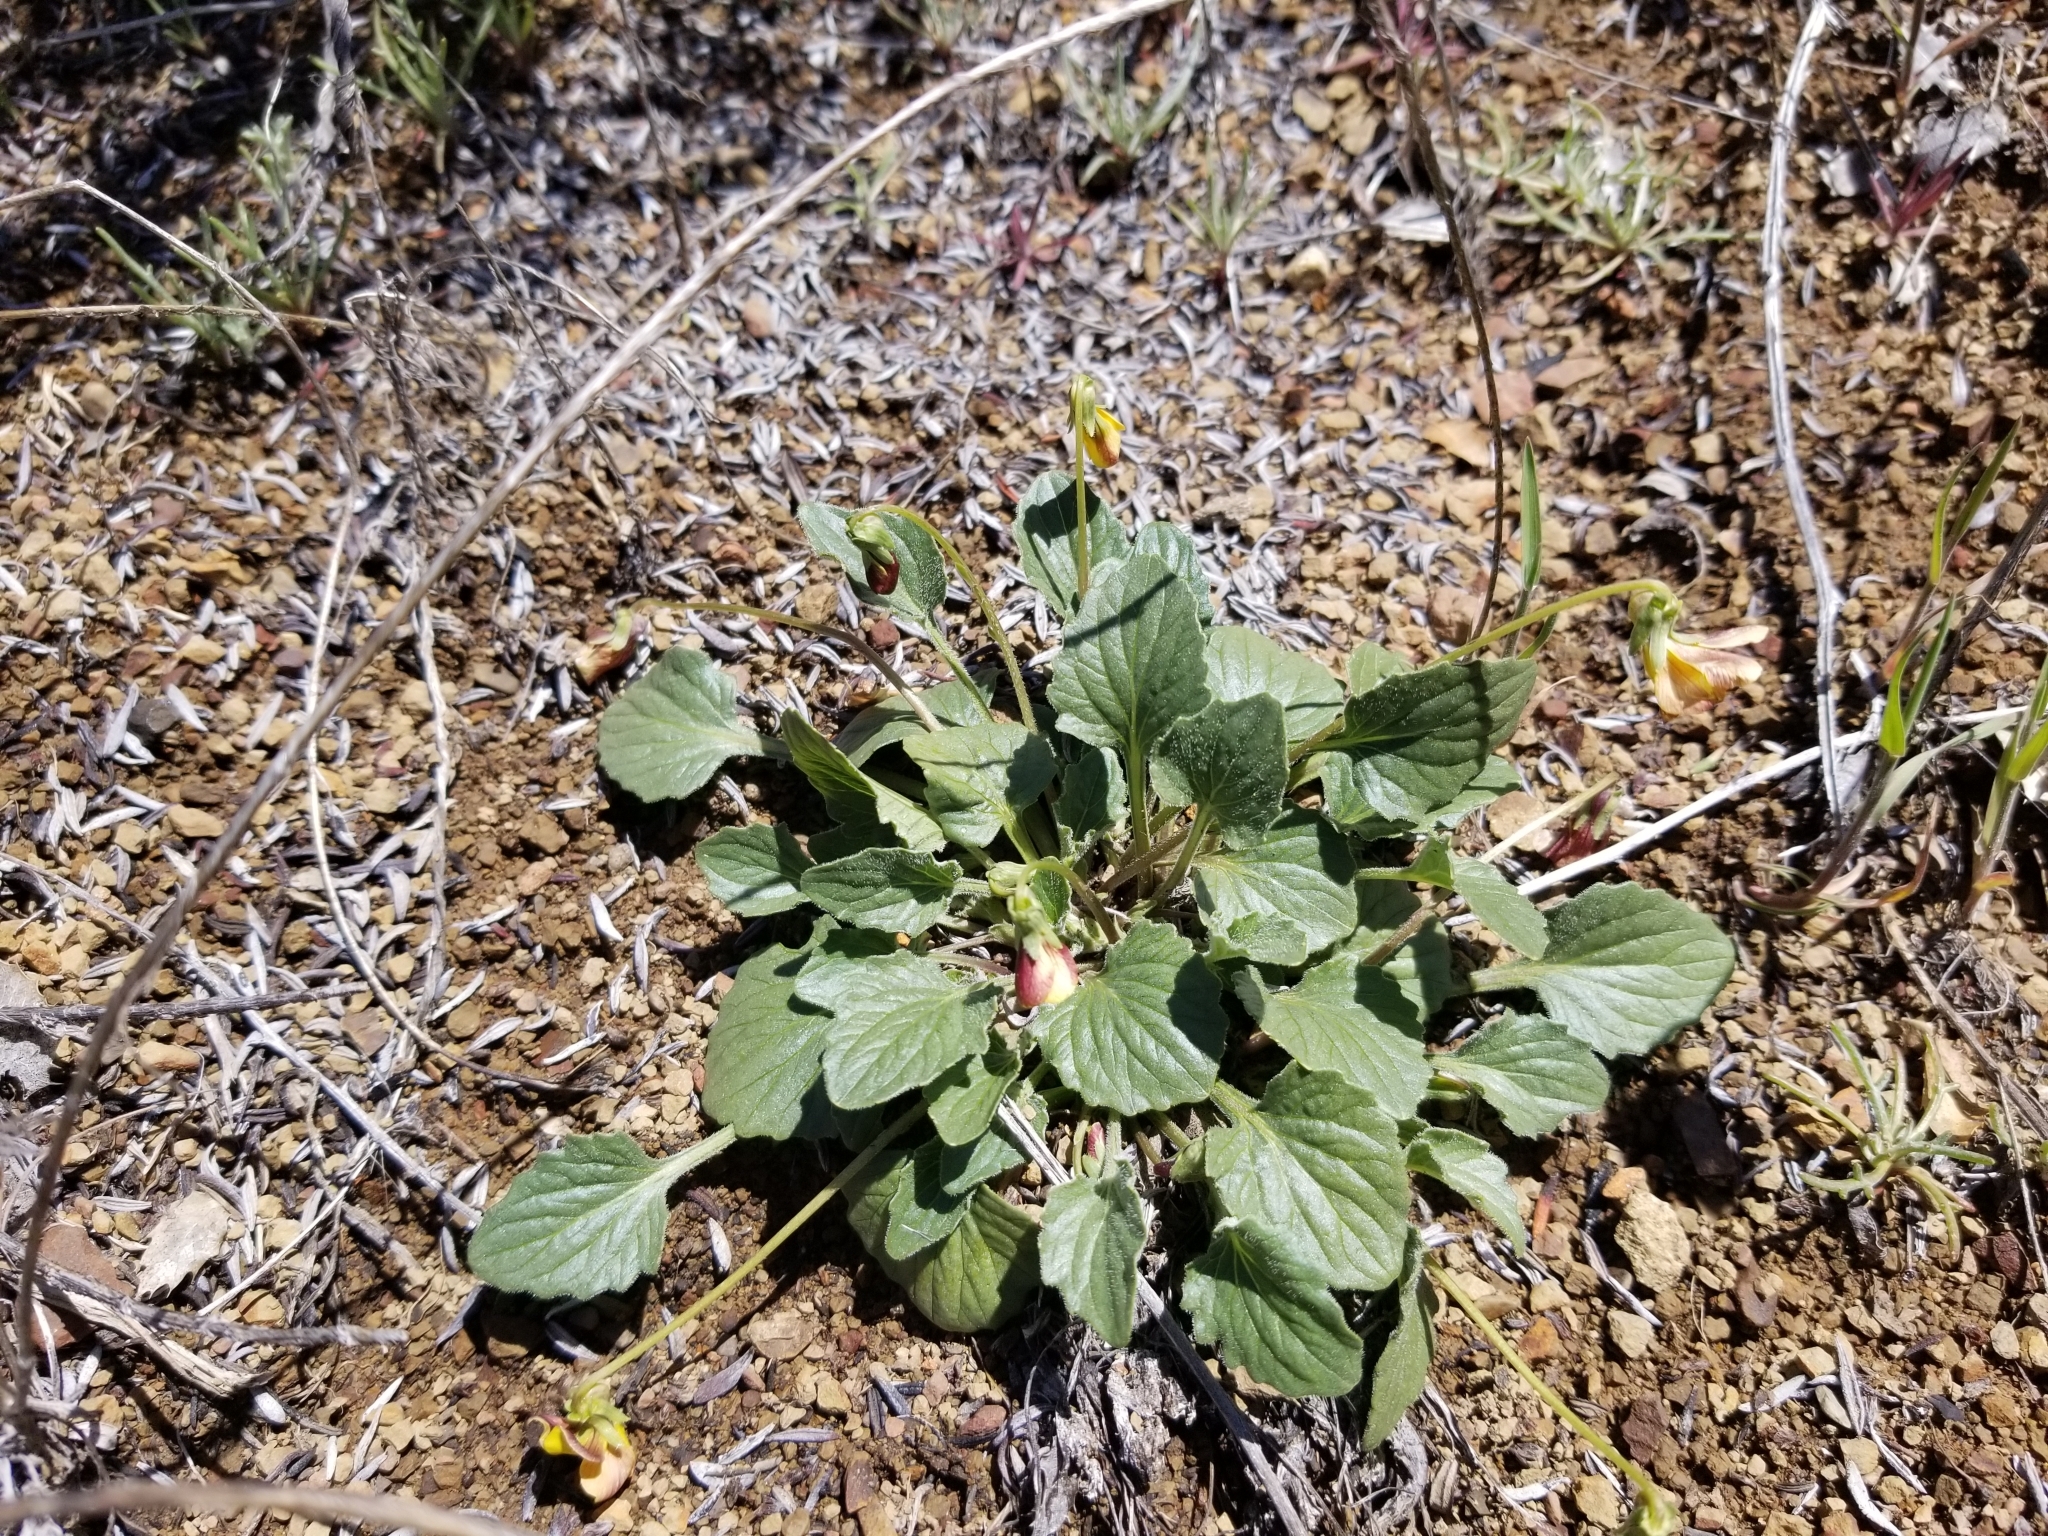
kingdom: Plantae
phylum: Tracheophyta
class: Magnoliopsida
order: Malpighiales
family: Violaceae
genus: Viola
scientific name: Viola purpurea
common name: Pine violet
